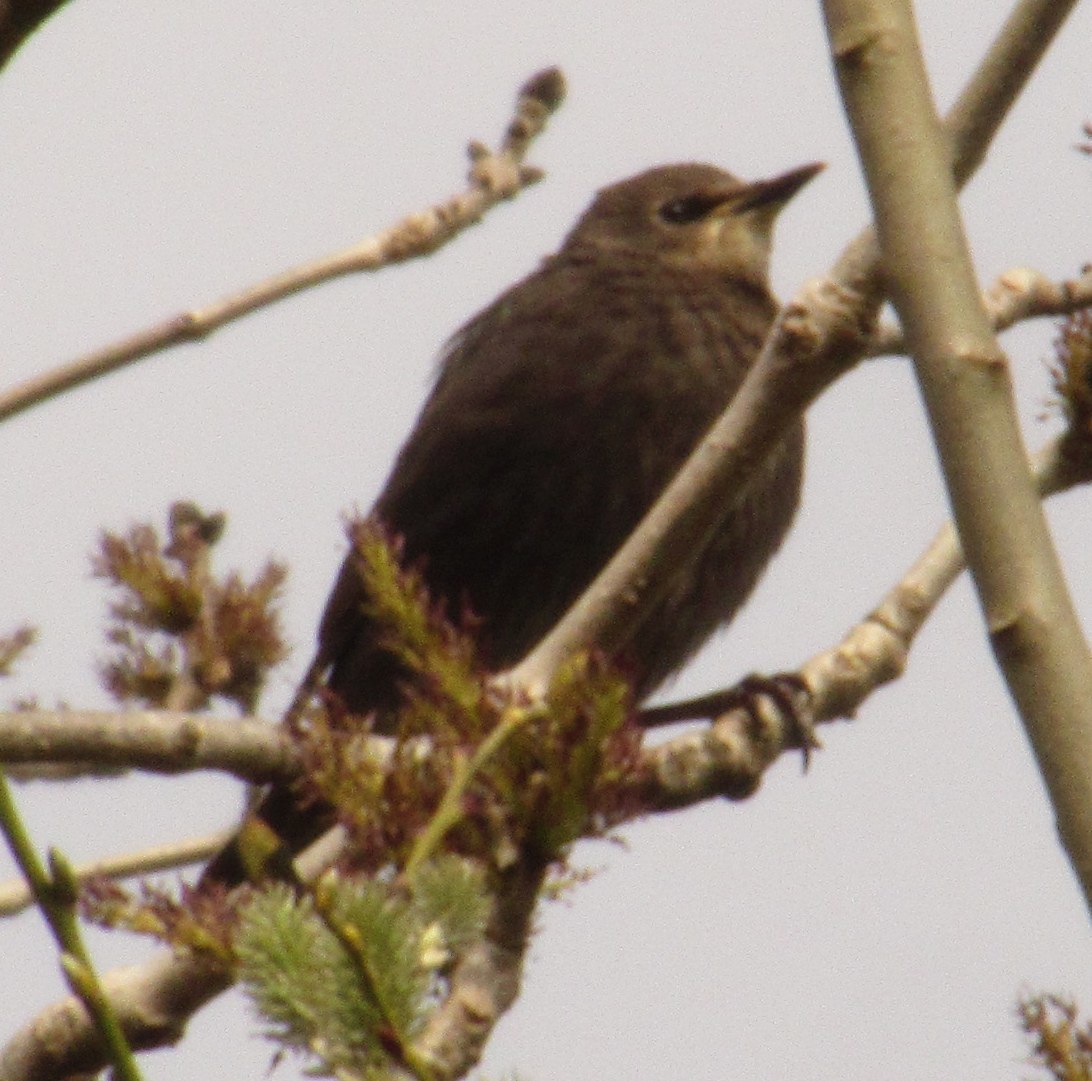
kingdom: Animalia
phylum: Chordata
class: Aves
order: Passeriformes
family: Sturnidae
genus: Sturnus
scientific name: Sturnus vulgaris
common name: Common starling
